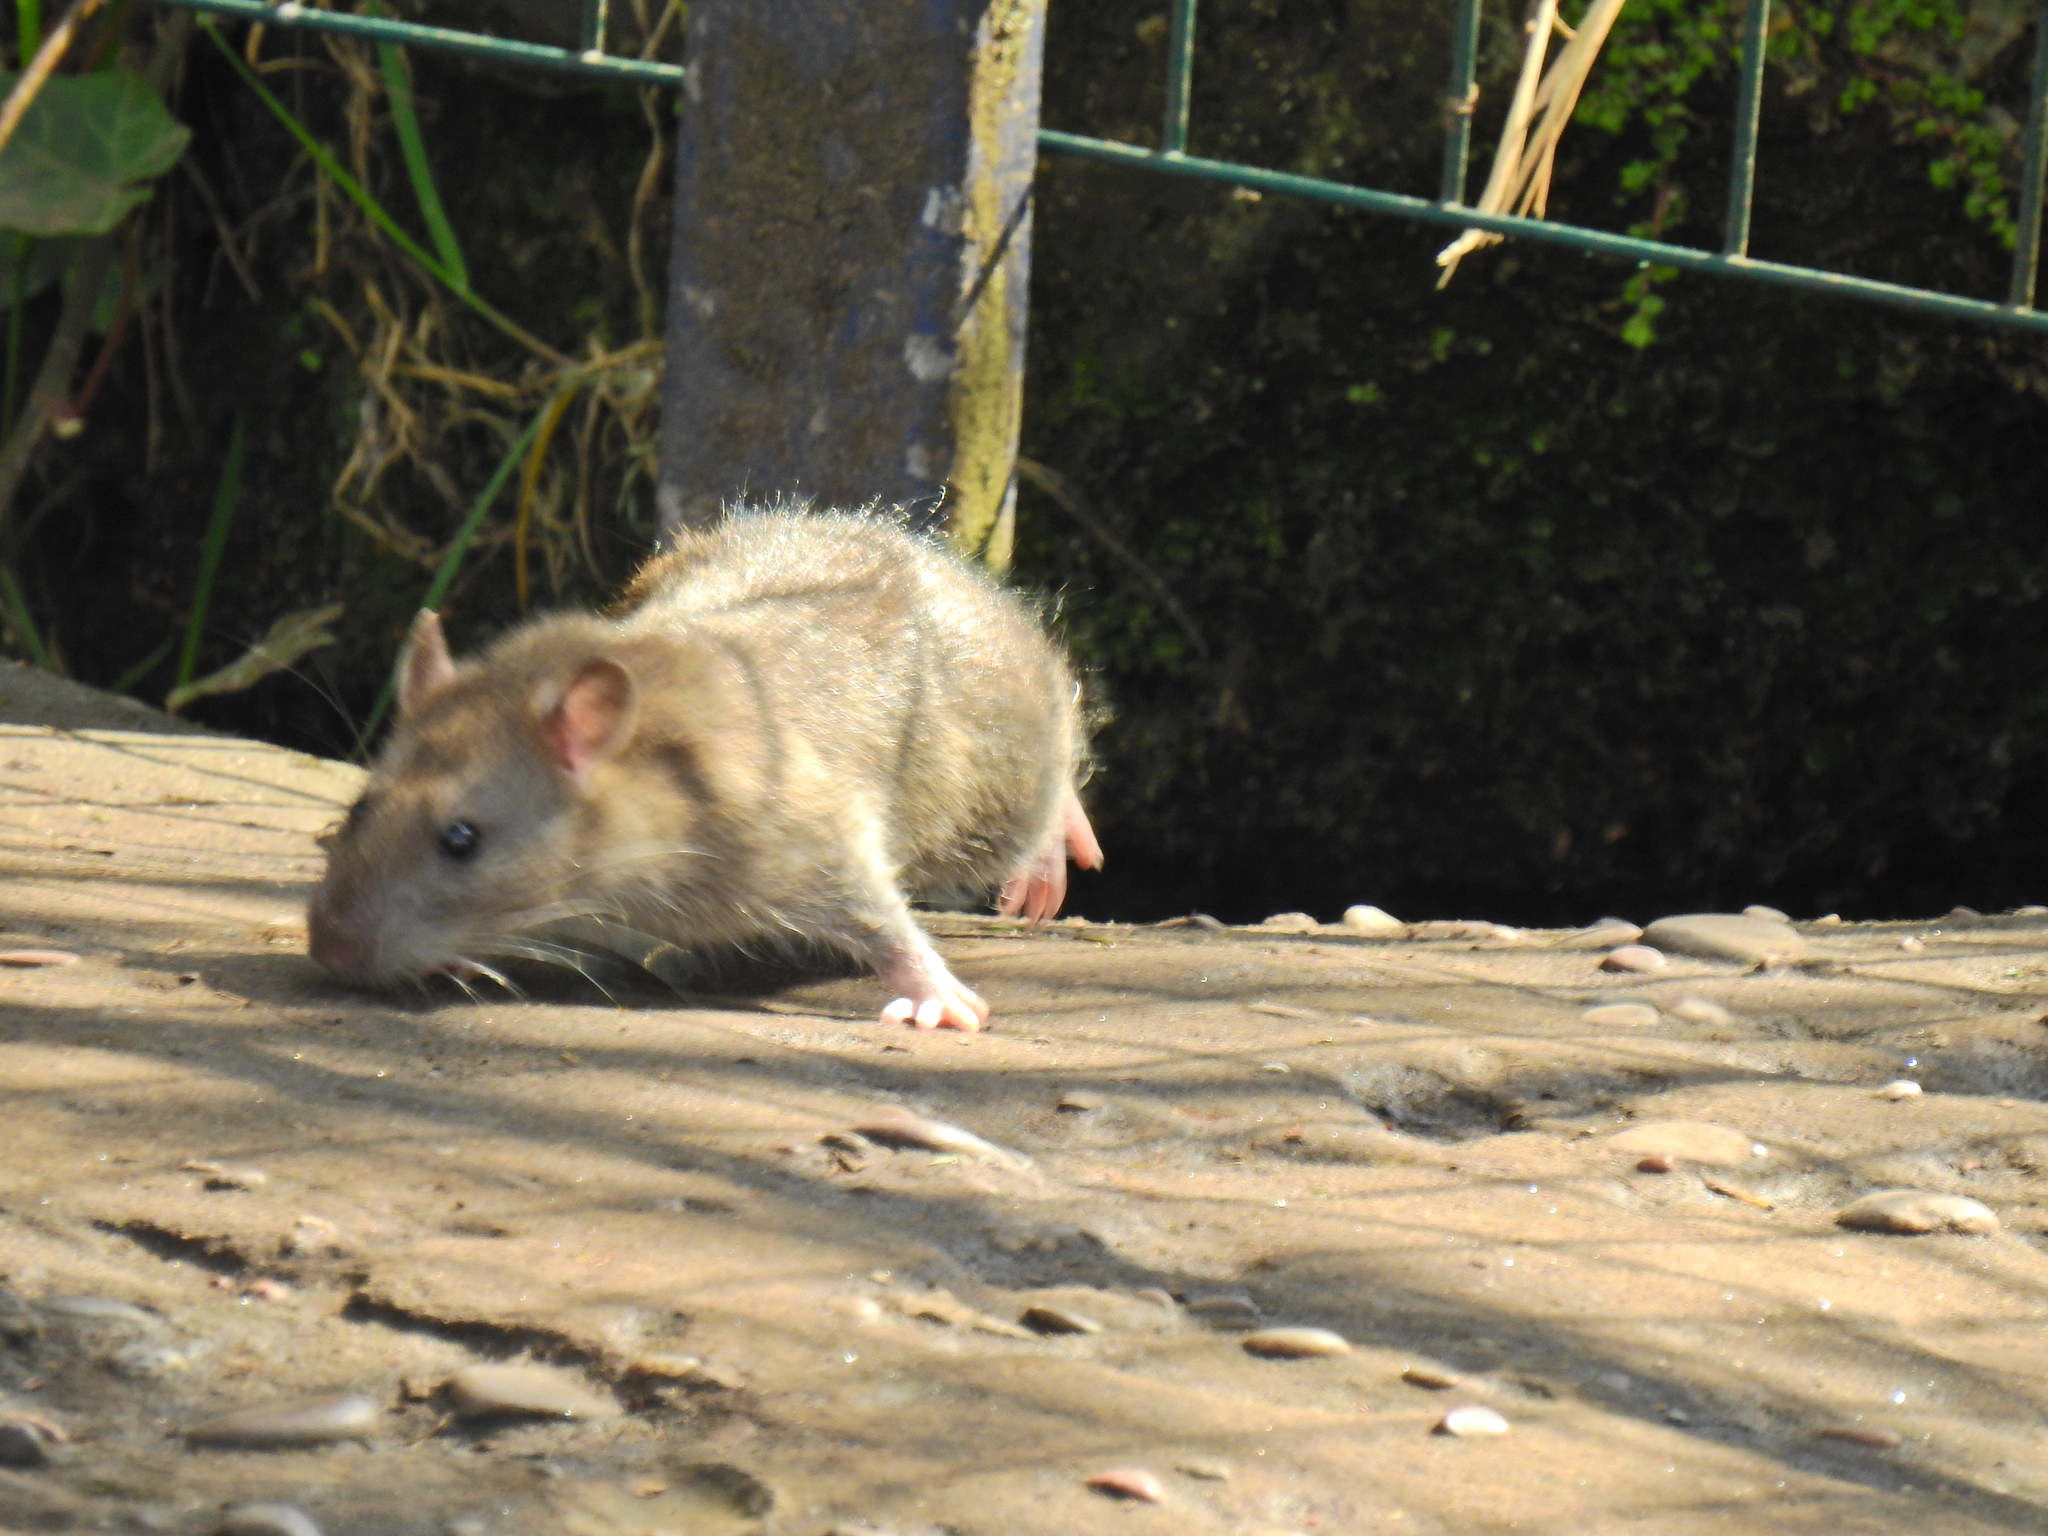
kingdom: Animalia
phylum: Chordata
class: Mammalia
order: Rodentia
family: Muridae
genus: Rattus
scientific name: Rattus norvegicus
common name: Brown rat
